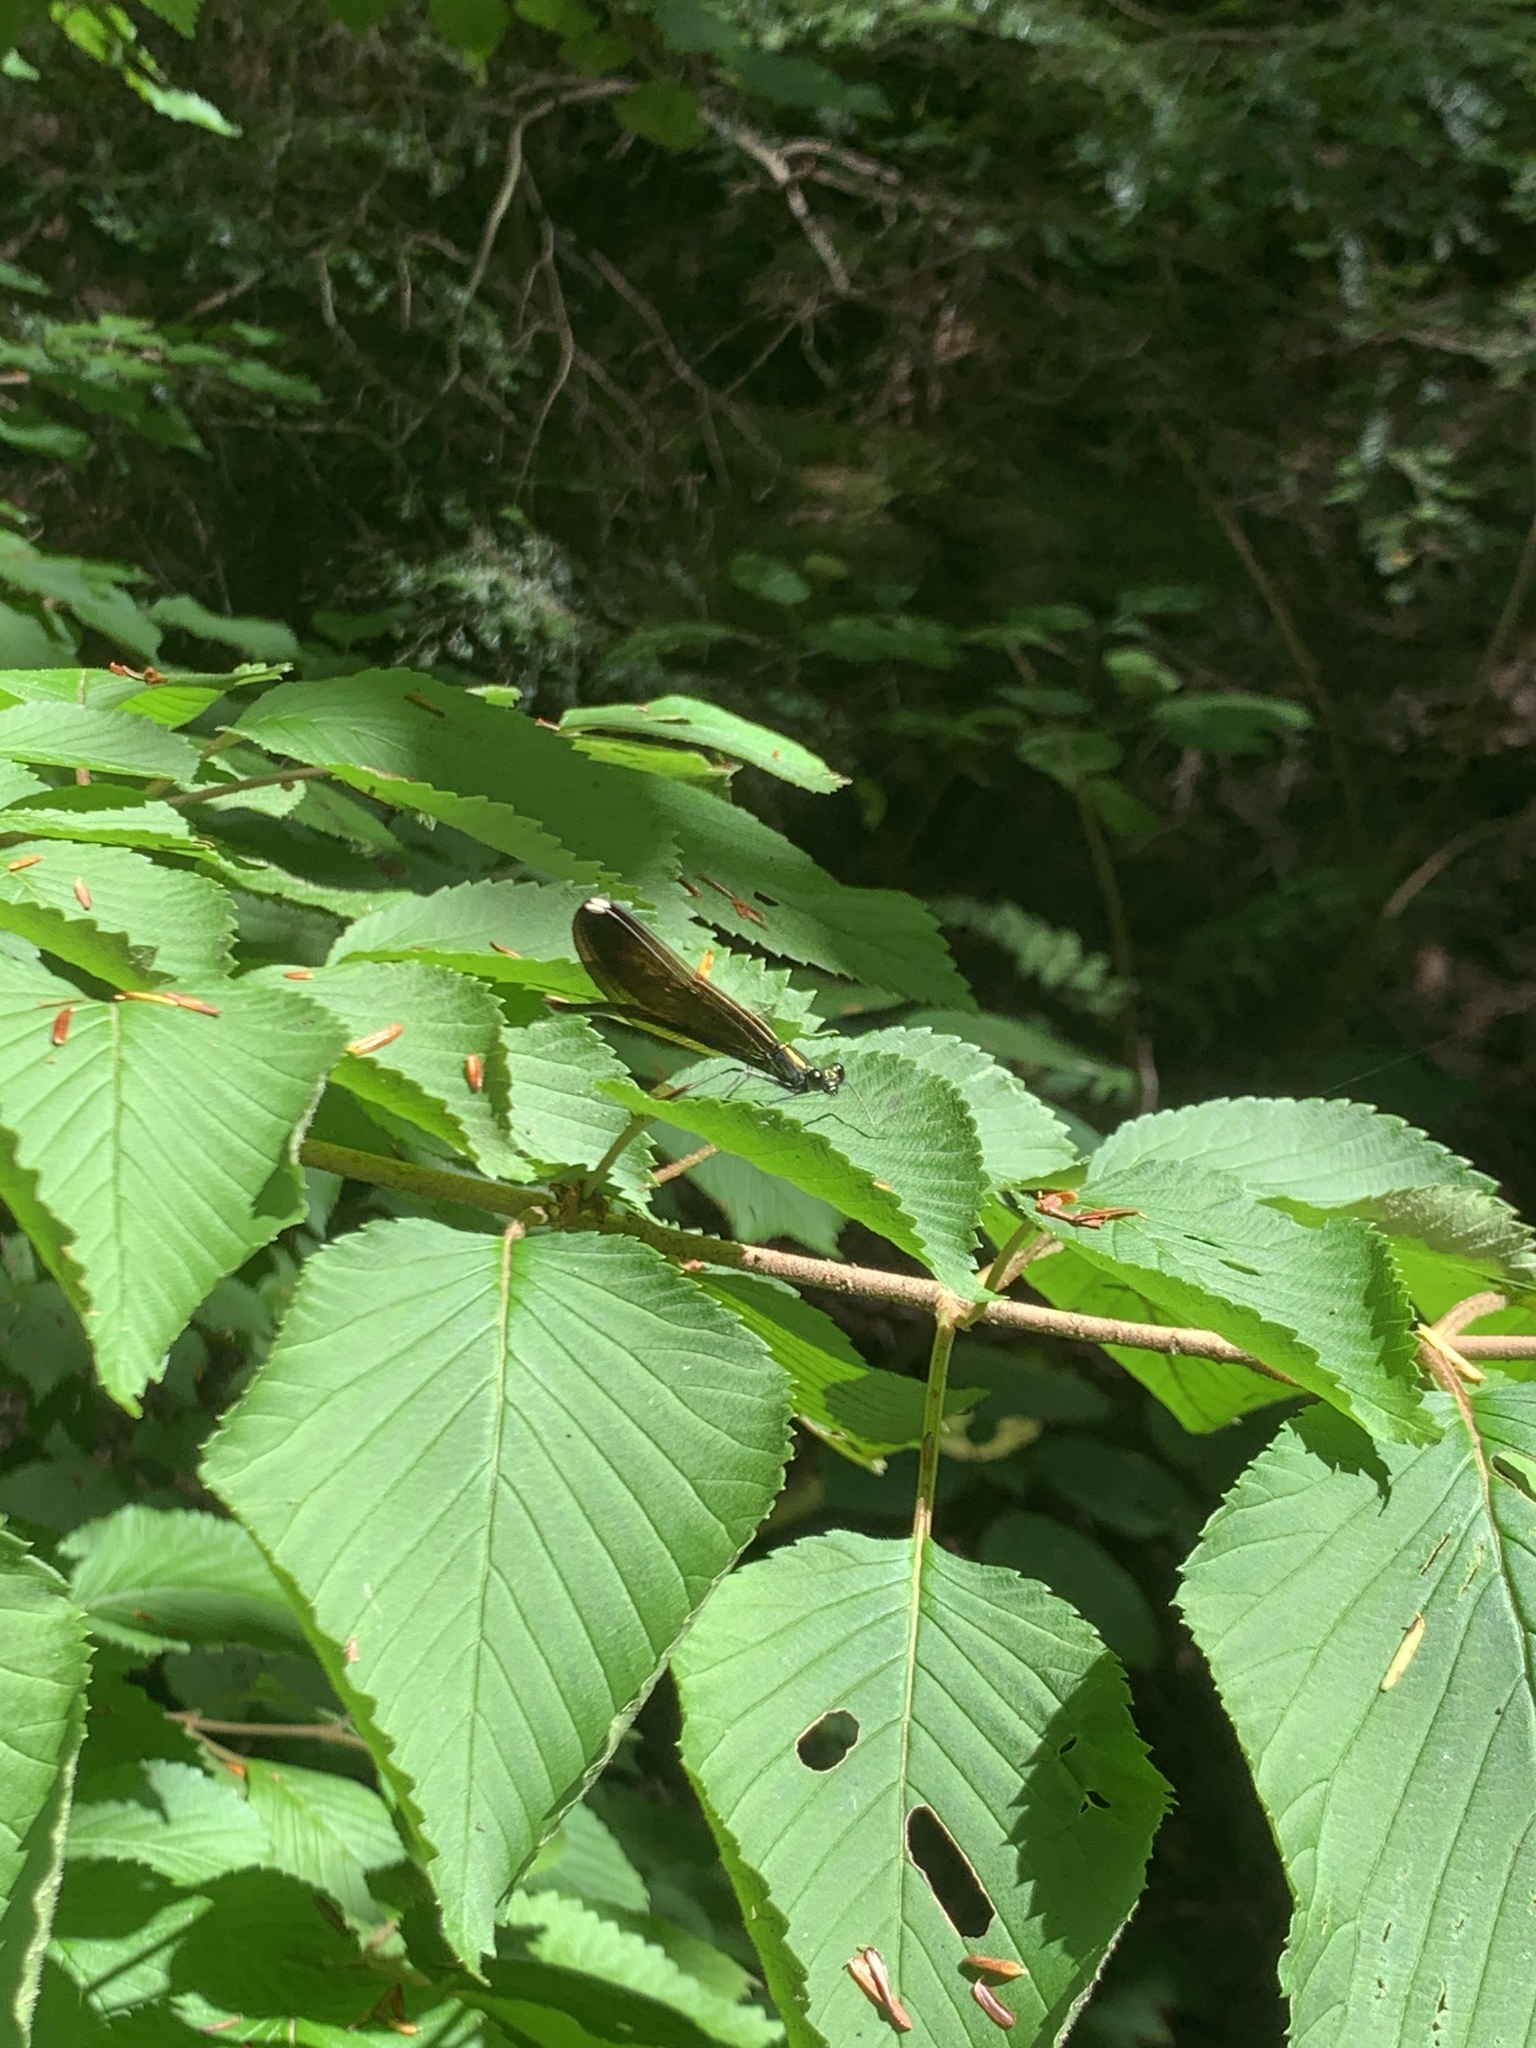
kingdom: Animalia
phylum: Arthropoda
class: Insecta
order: Odonata
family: Calopterygidae
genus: Calopteryx
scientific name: Calopteryx maculata
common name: Ebony jewelwing
